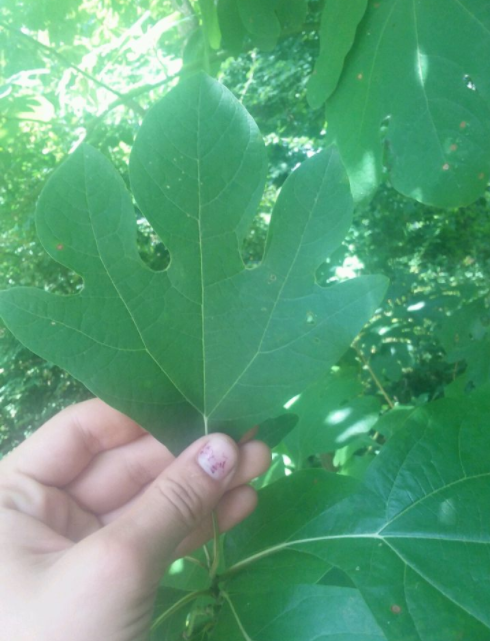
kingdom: Plantae
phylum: Tracheophyta
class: Magnoliopsida
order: Laurales
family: Lauraceae
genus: Sassafras
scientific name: Sassafras albidum
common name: Sassafras
